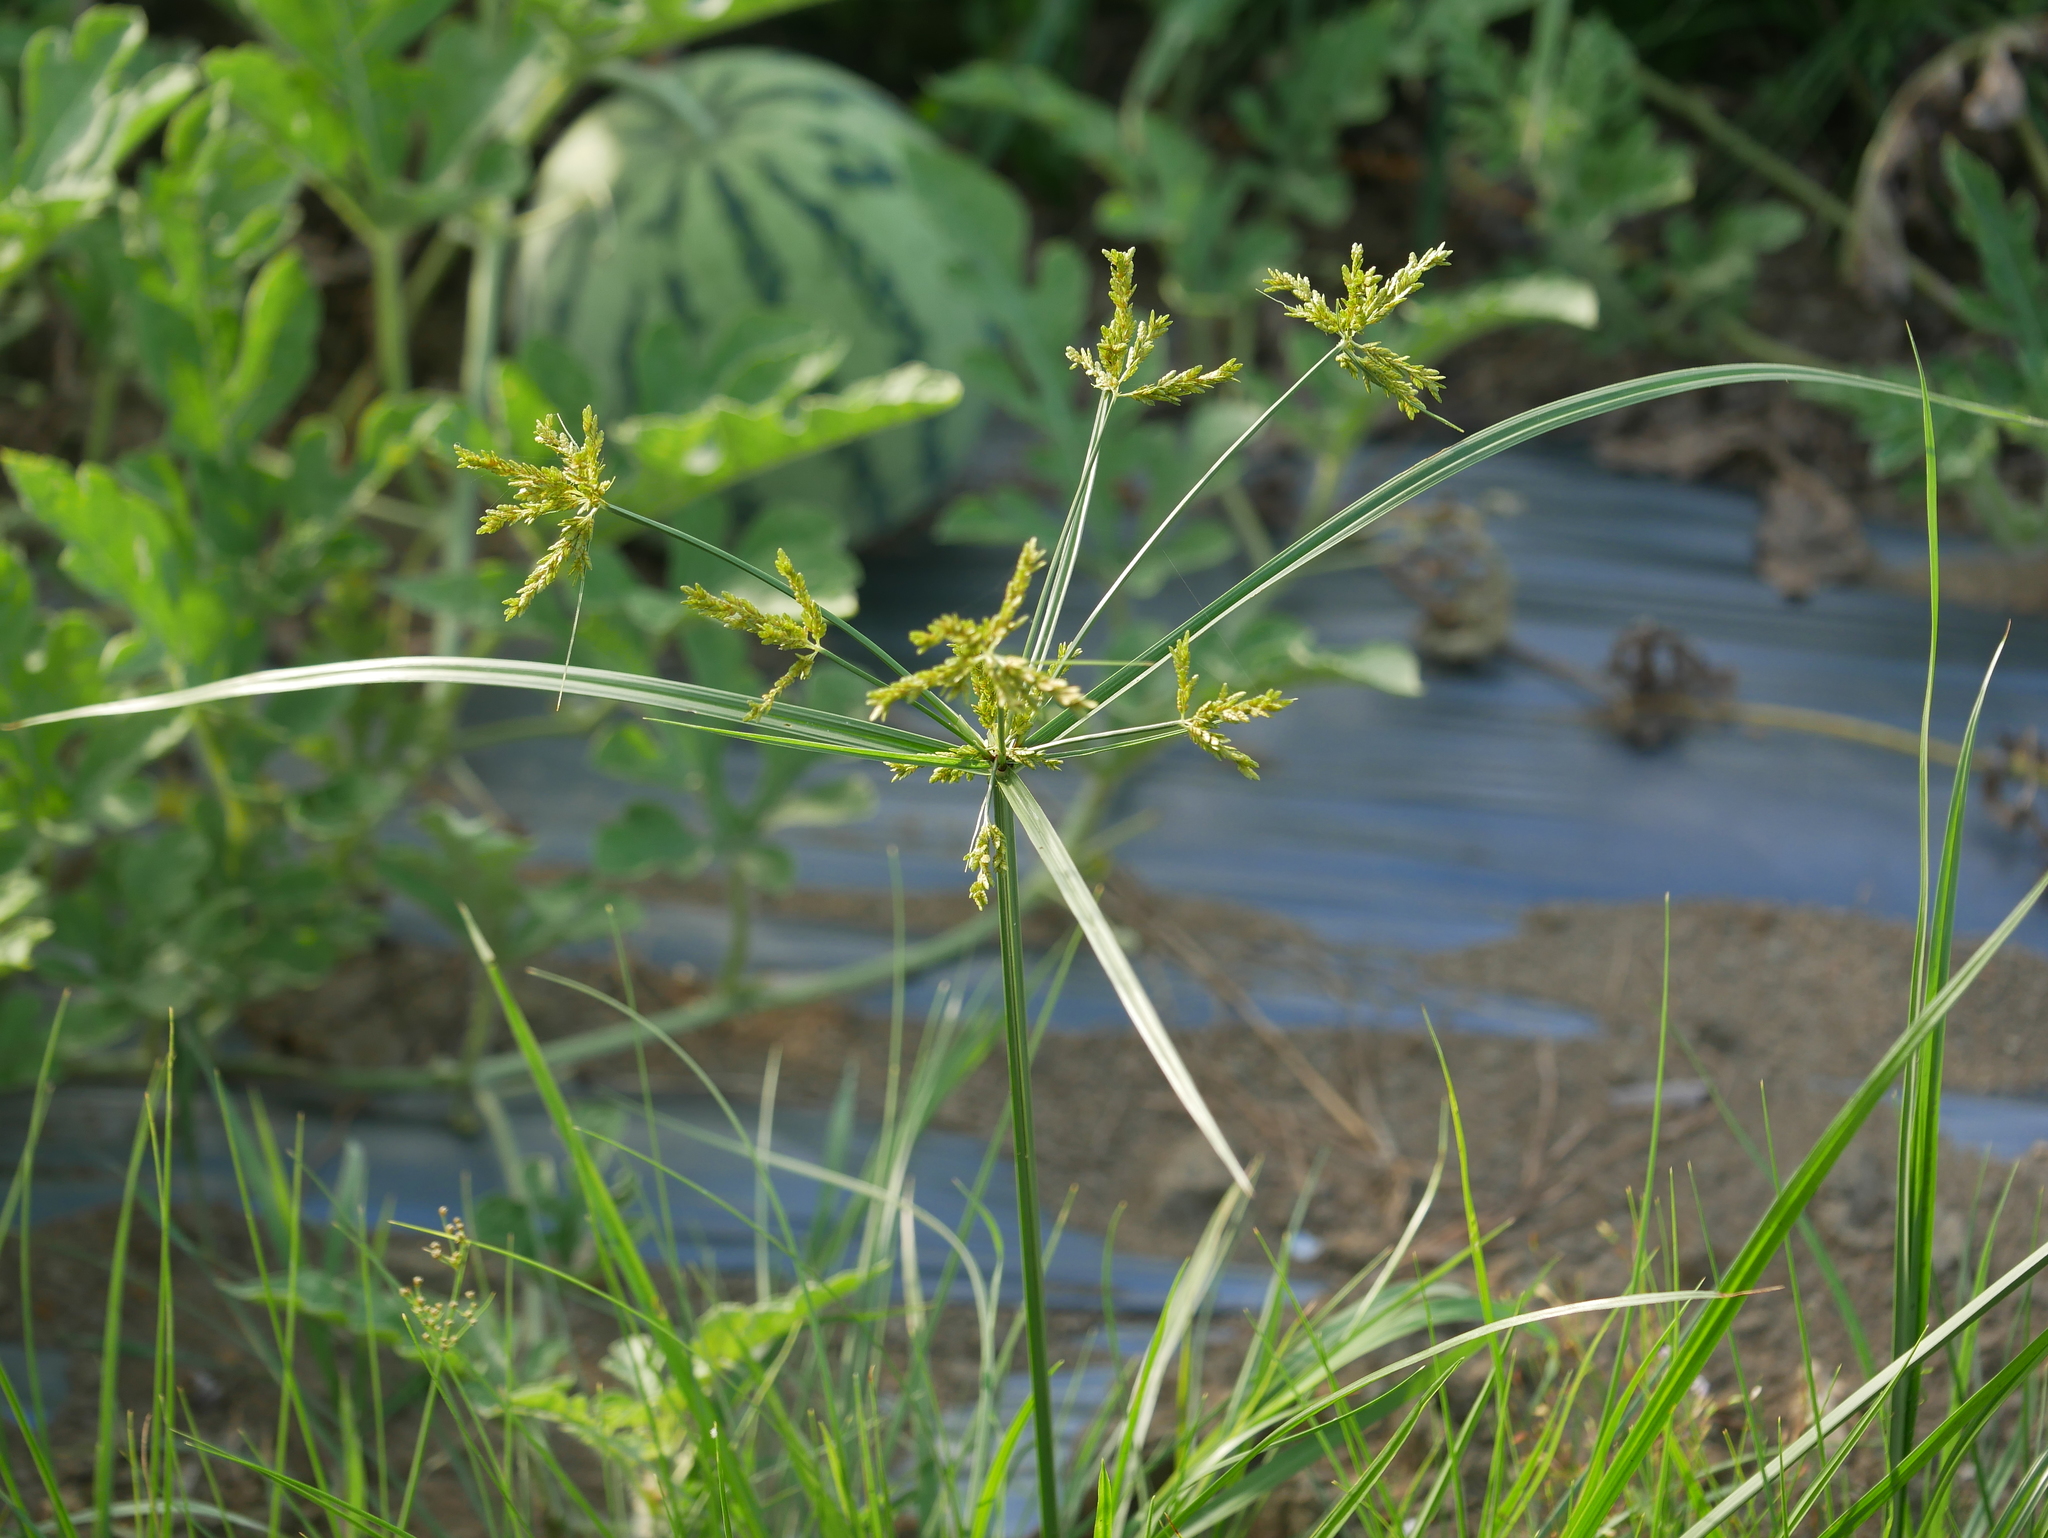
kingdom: Plantae
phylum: Tracheophyta
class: Liliopsida
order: Poales
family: Cyperaceae
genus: Cyperus
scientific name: Cyperus iria
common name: Ricefield flatsedge
